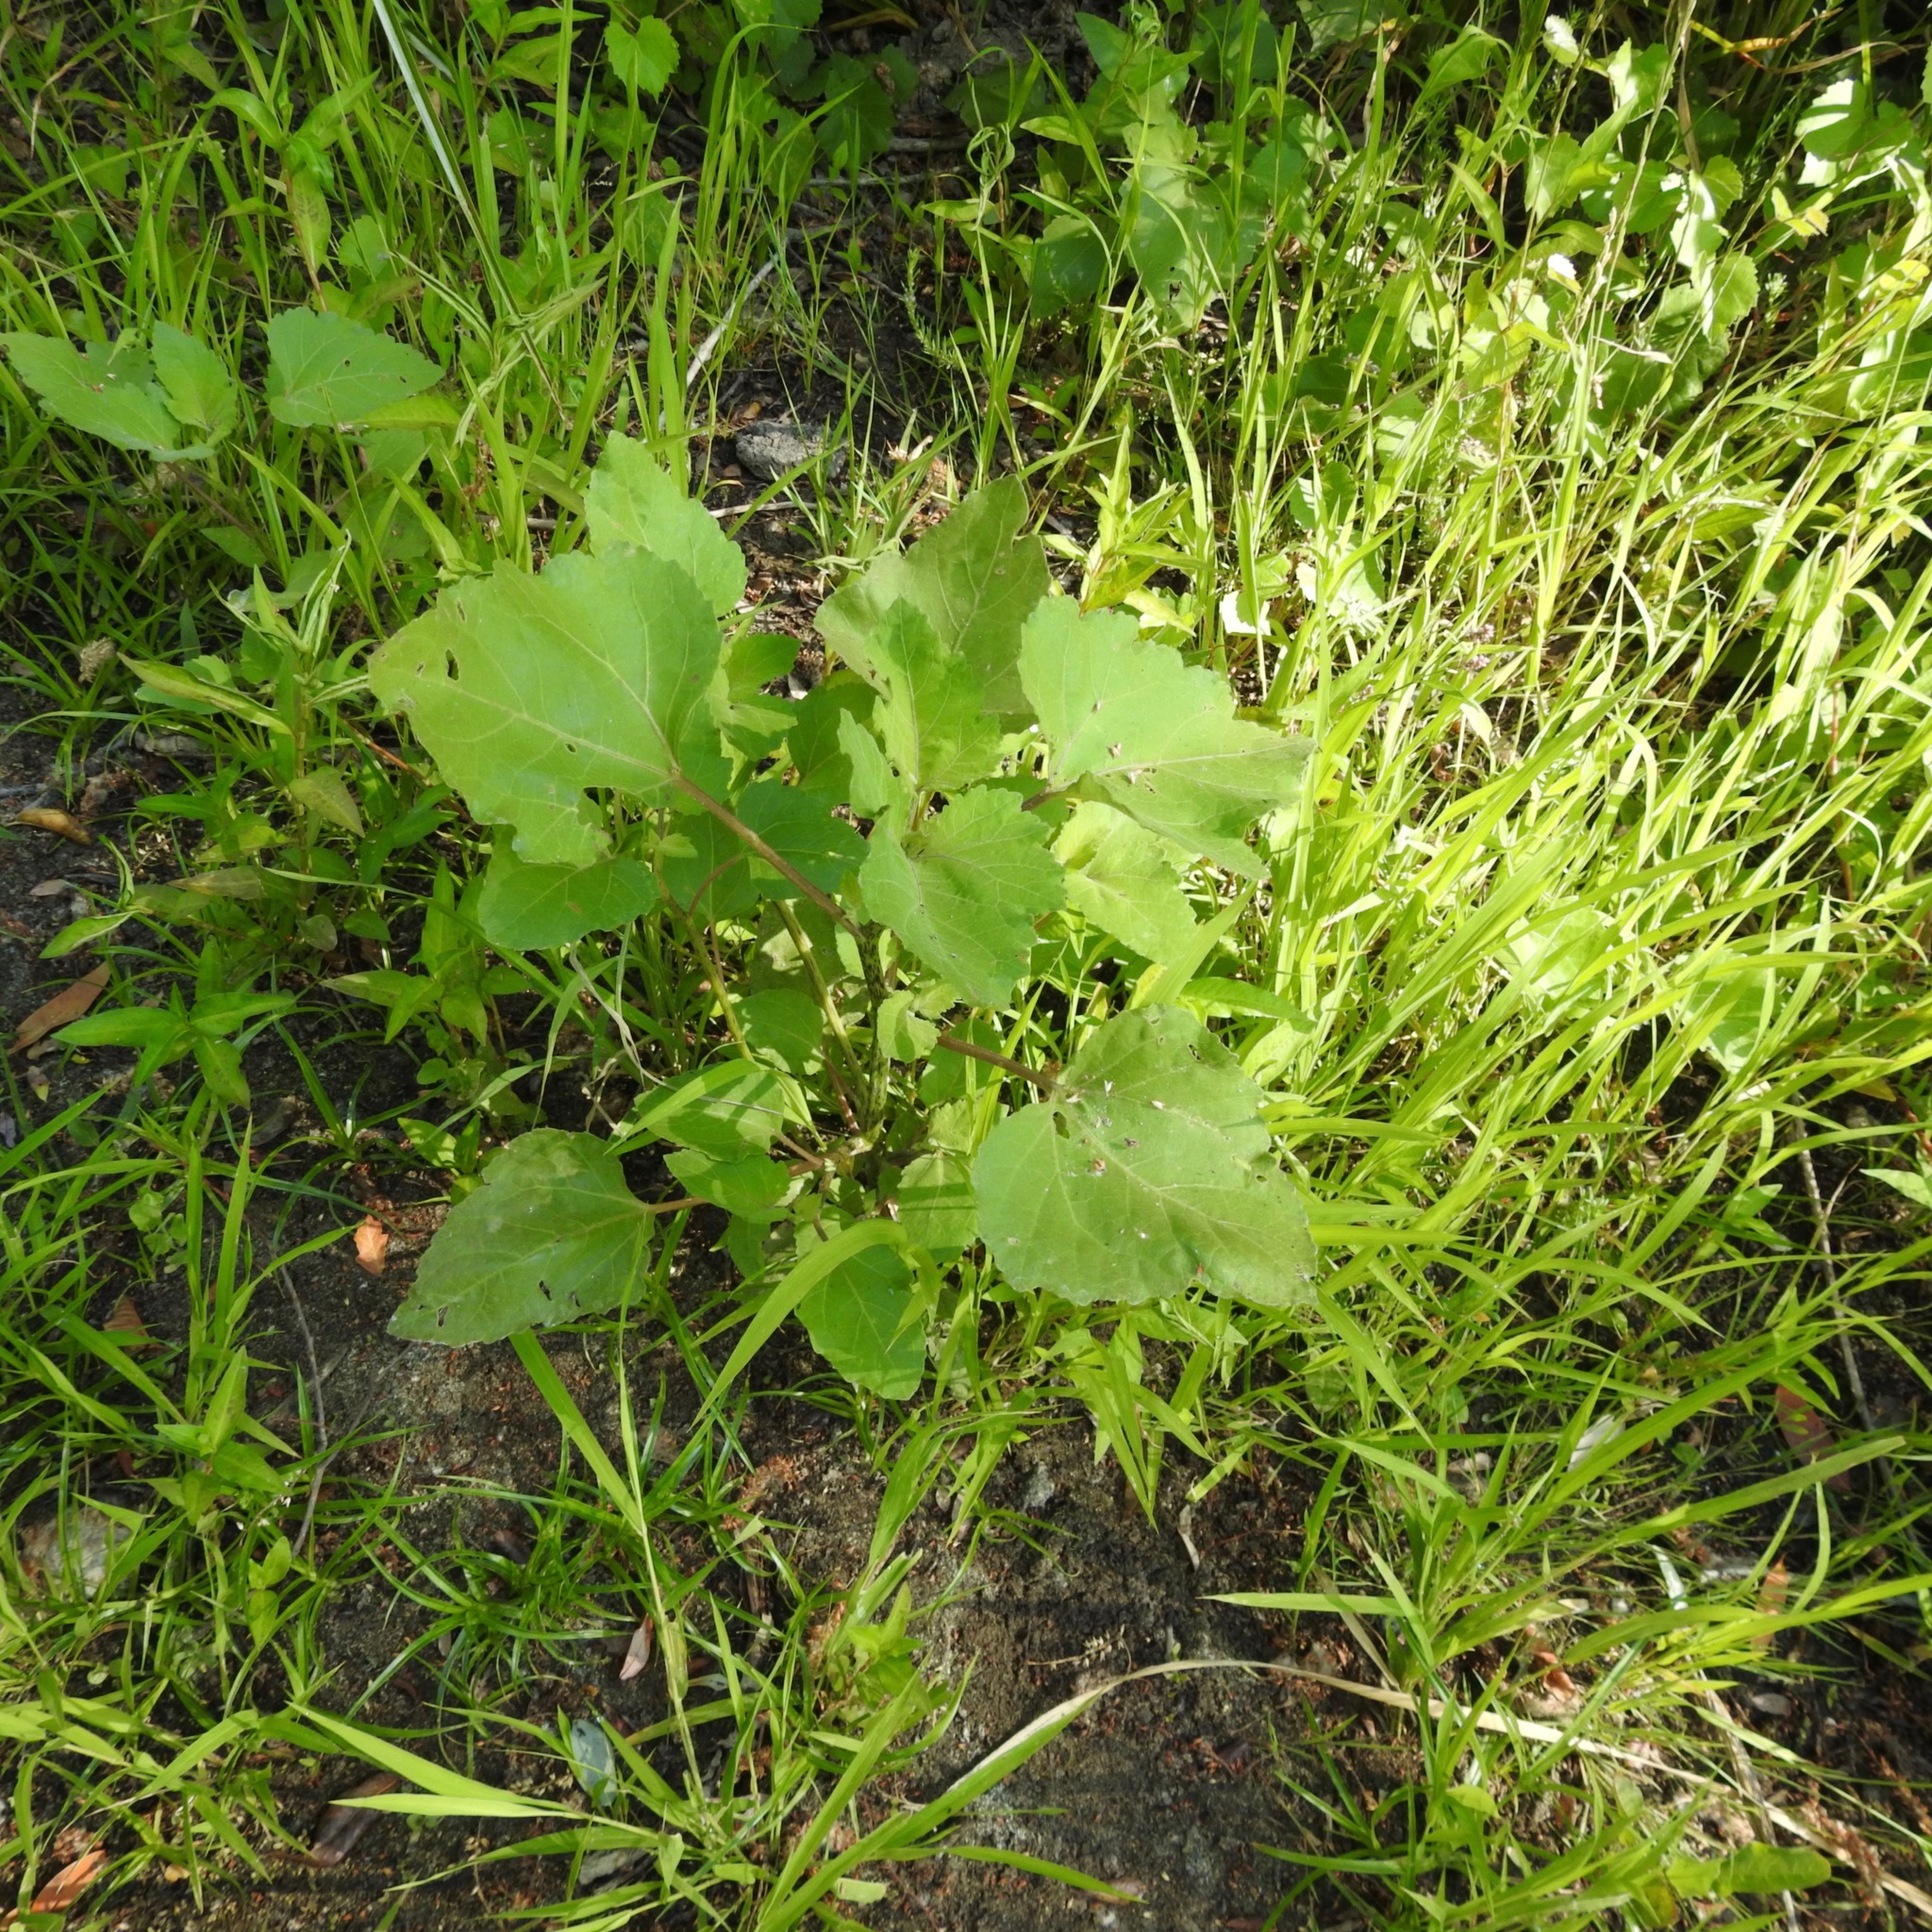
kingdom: Plantae
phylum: Tracheophyta
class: Magnoliopsida
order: Asterales
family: Asteraceae
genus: Xanthium
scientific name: Xanthium strumarium
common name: Rough cocklebur
